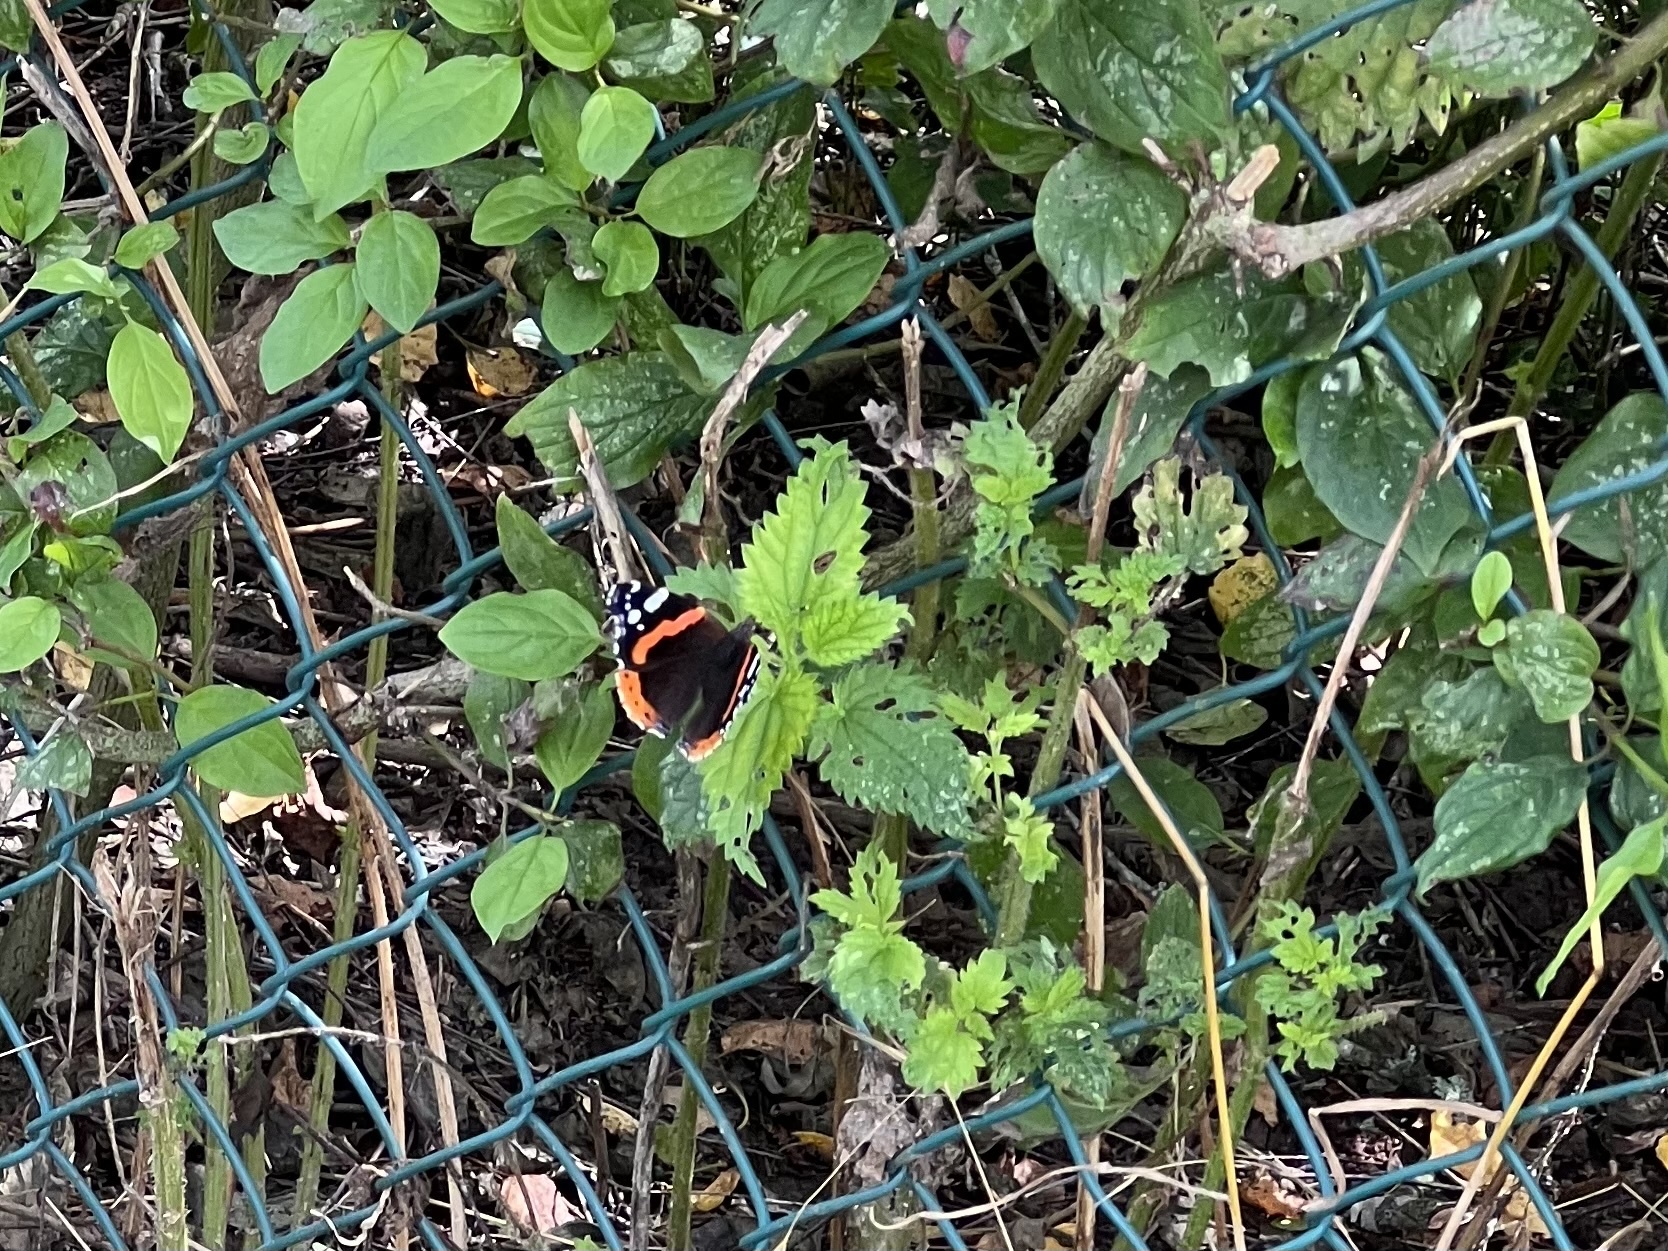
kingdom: Animalia
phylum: Arthropoda
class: Insecta
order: Lepidoptera
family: Nymphalidae
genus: Vanessa
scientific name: Vanessa atalanta
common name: Red admiral
